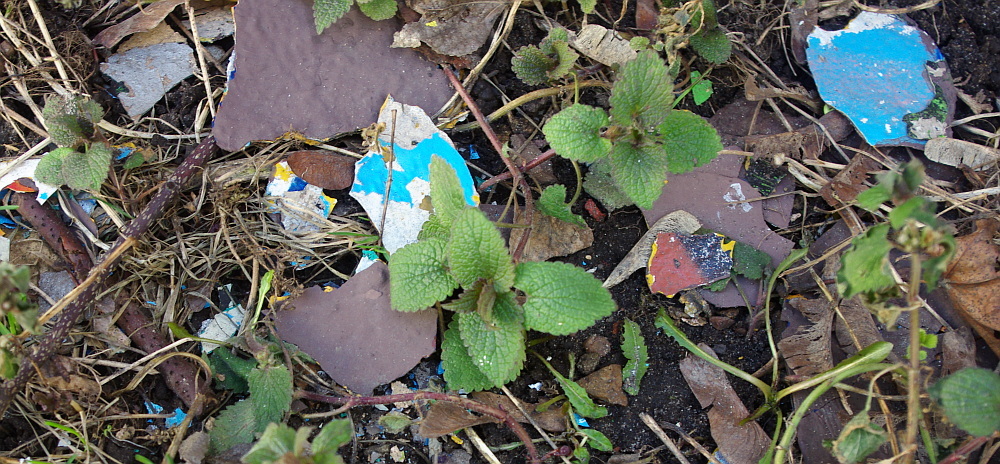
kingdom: Plantae
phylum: Tracheophyta
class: Magnoliopsida
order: Lamiales
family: Lamiaceae
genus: Lamium
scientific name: Lamium album
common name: White dead-nettle
